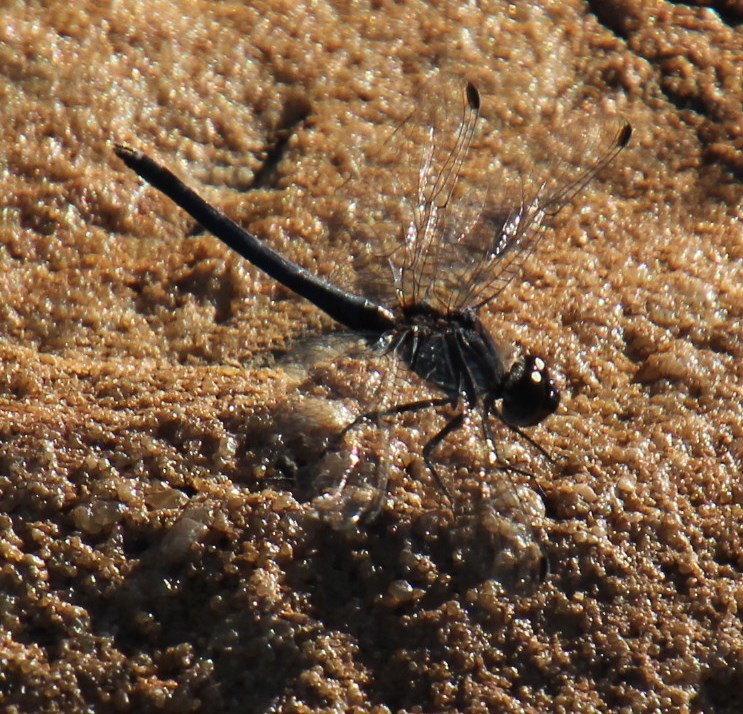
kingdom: Animalia
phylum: Arthropoda
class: Insecta
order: Odonata
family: Libellulidae
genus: Diplacodes
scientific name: Diplacodes lefebvrii
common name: Black percher
